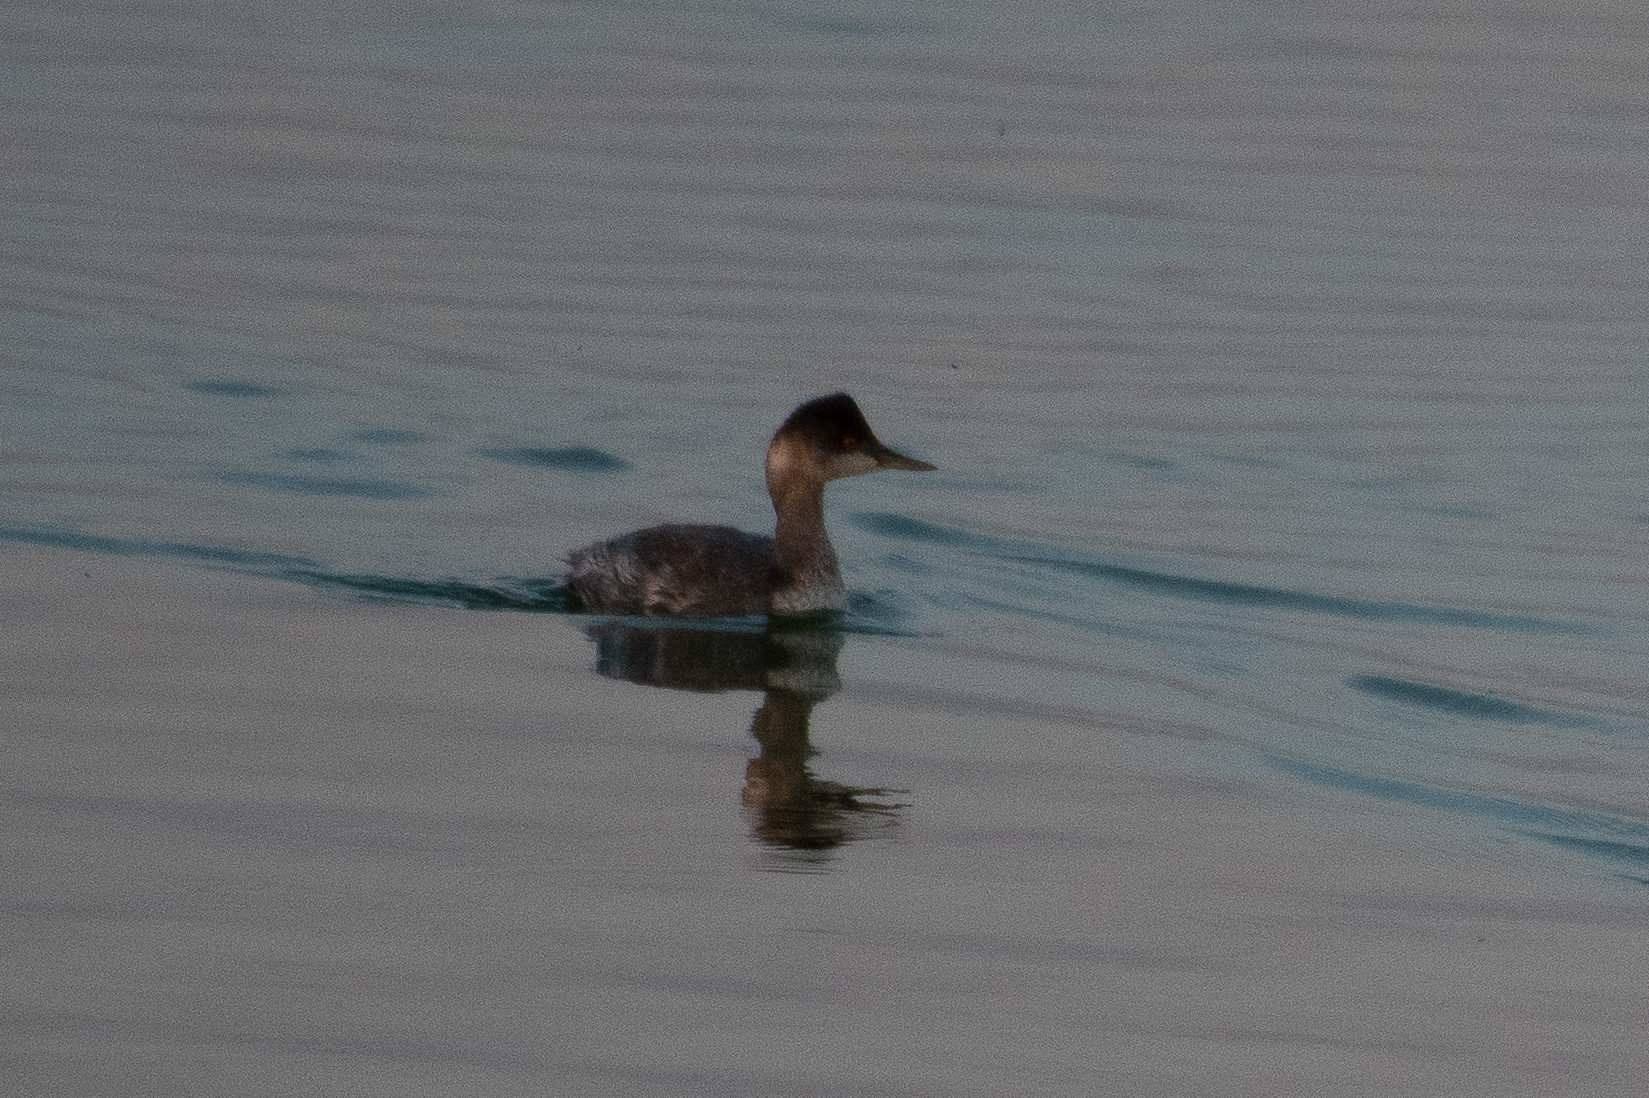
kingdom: Animalia
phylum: Chordata
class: Aves
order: Podicipediformes
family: Podicipedidae
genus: Podiceps
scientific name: Podiceps nigricollis
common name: Black-necked grebe
